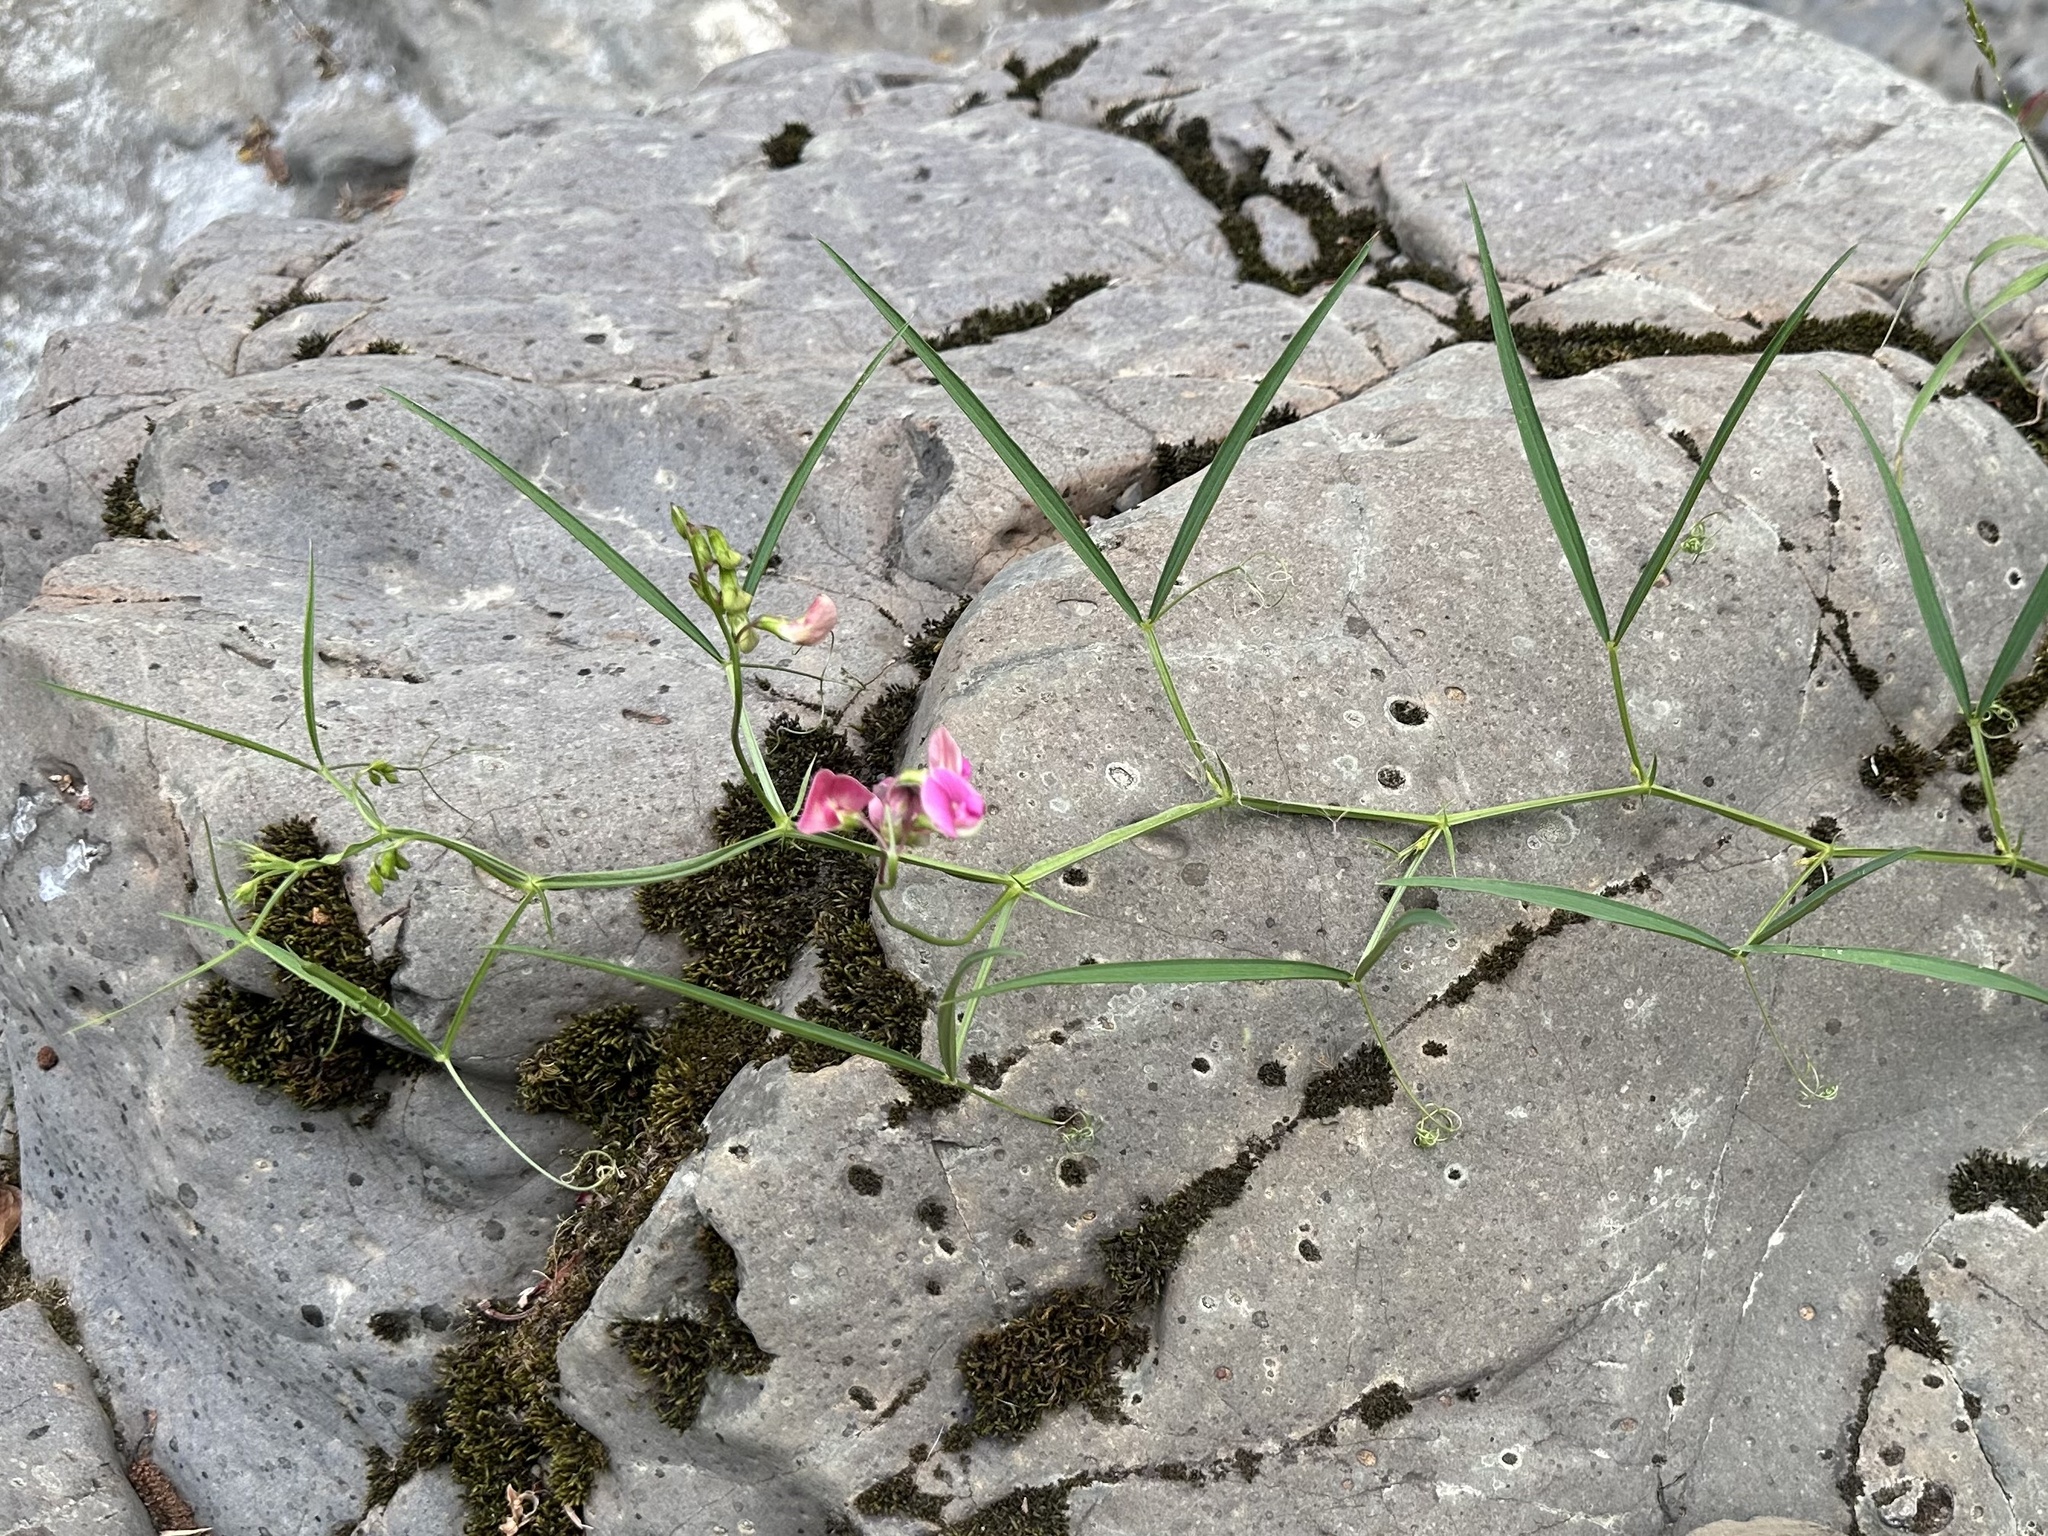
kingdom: Plantae
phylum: Tracheophyta
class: Magnoliopsida
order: Fabales
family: Fabaceae
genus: Lathyrus
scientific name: Lathyrus sylvestris
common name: Flat pea
